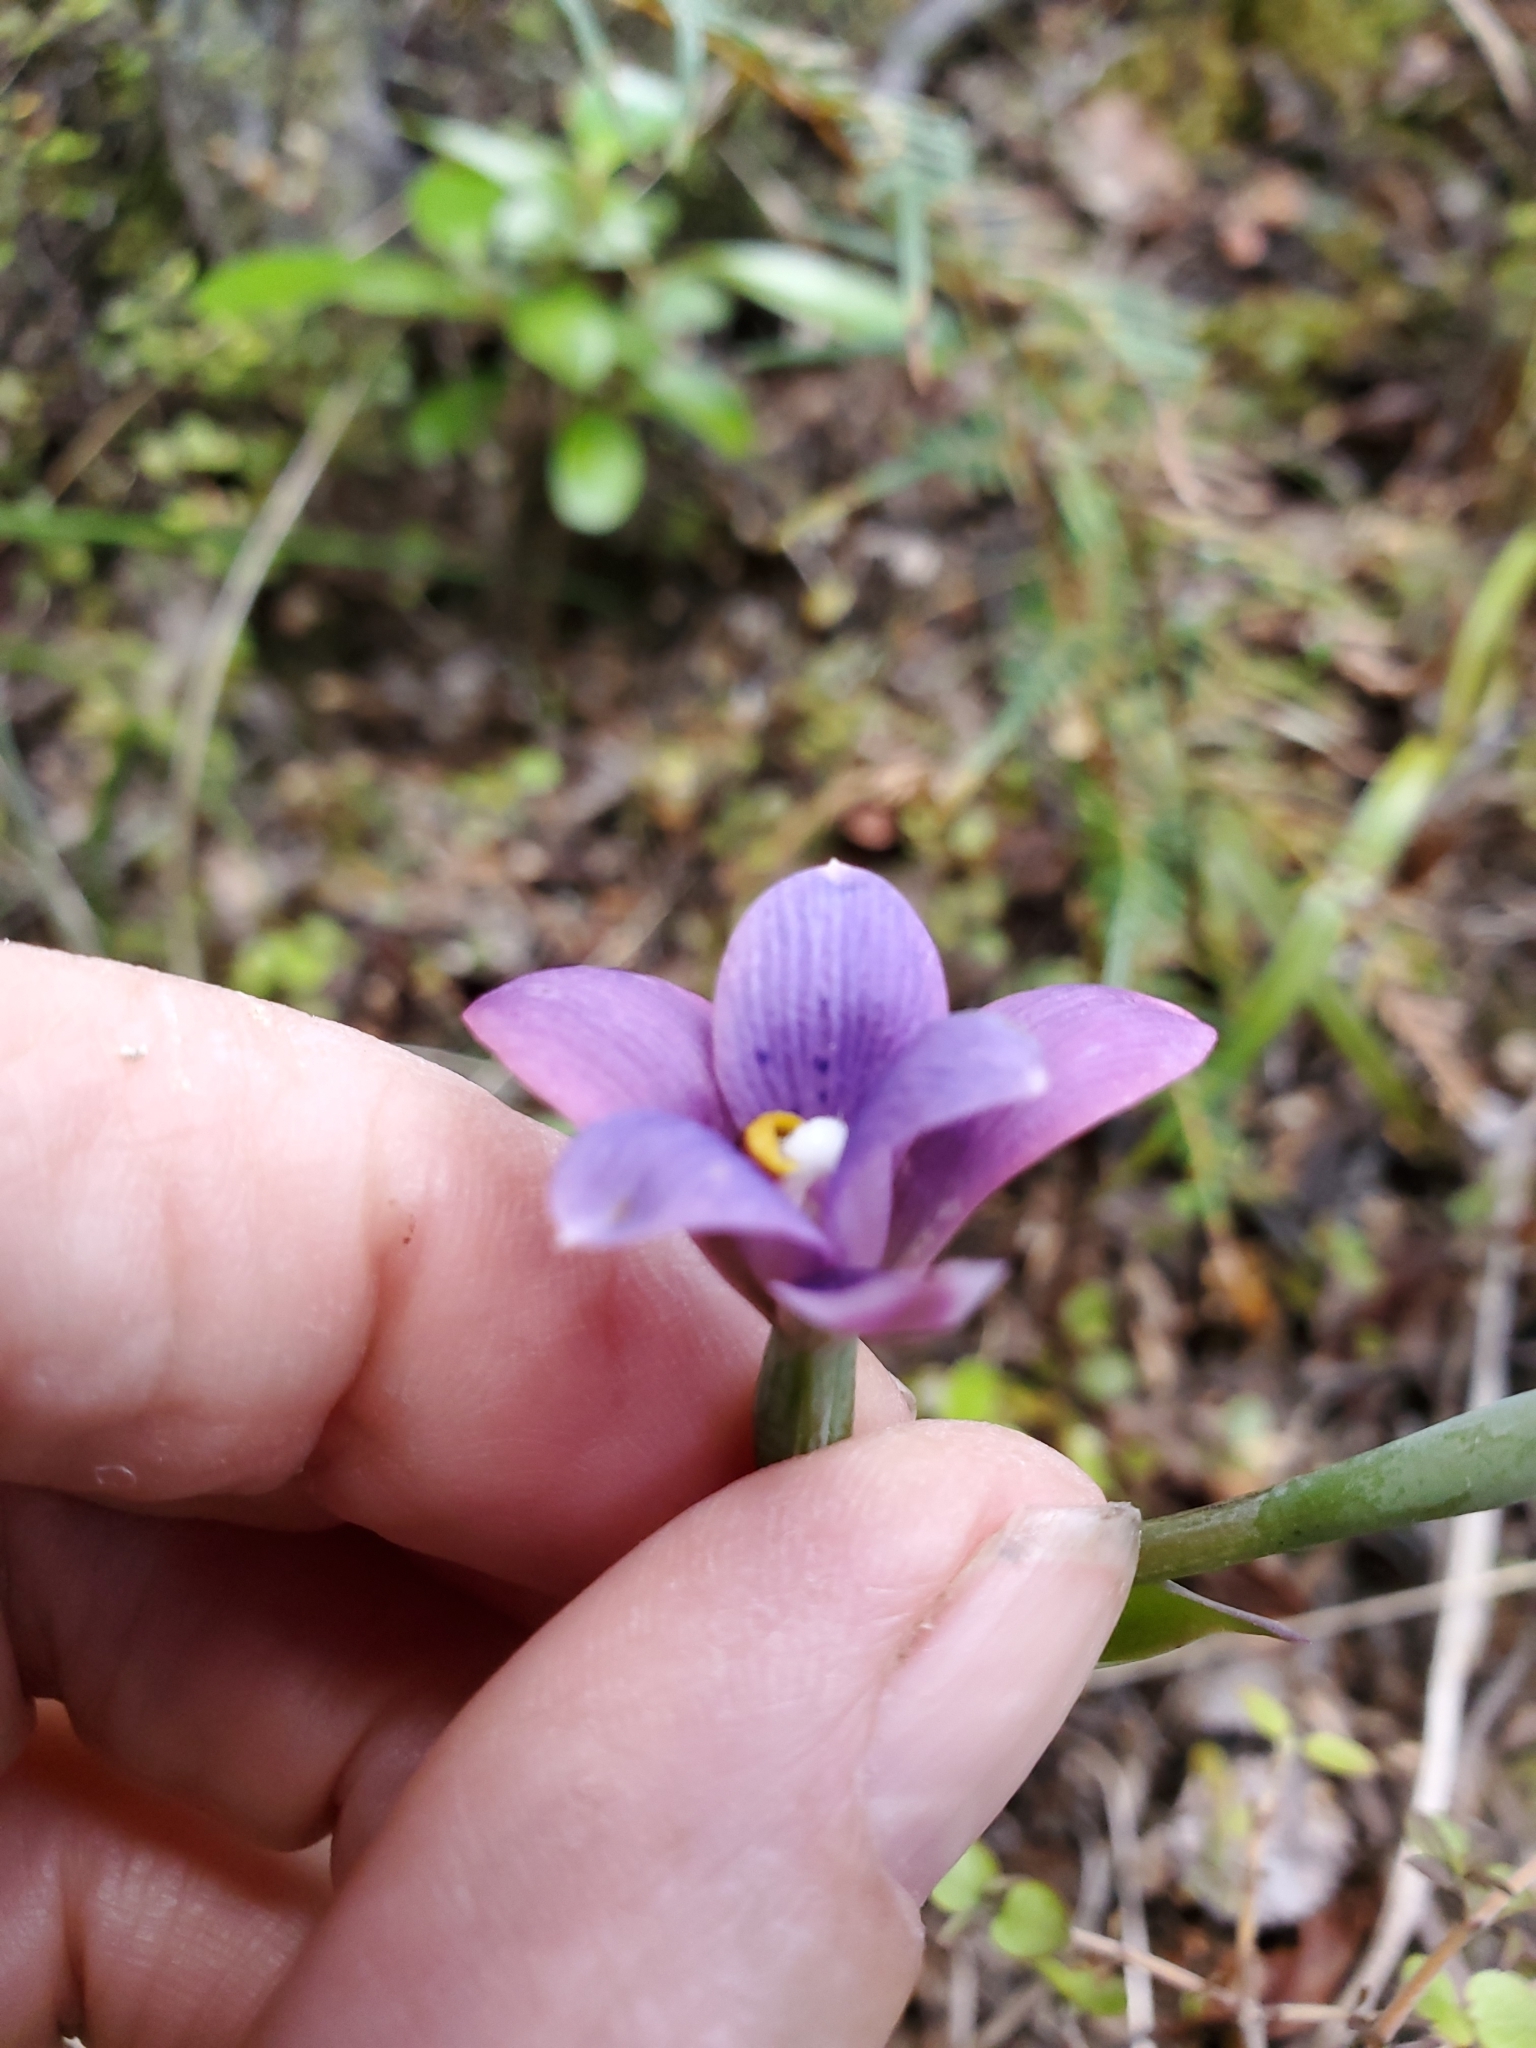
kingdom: Plantae
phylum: Tracheophyta
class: Liliopsida
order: Asparagales
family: Orchidaceae
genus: Thelymitra
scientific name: Thelymitra nervosa
